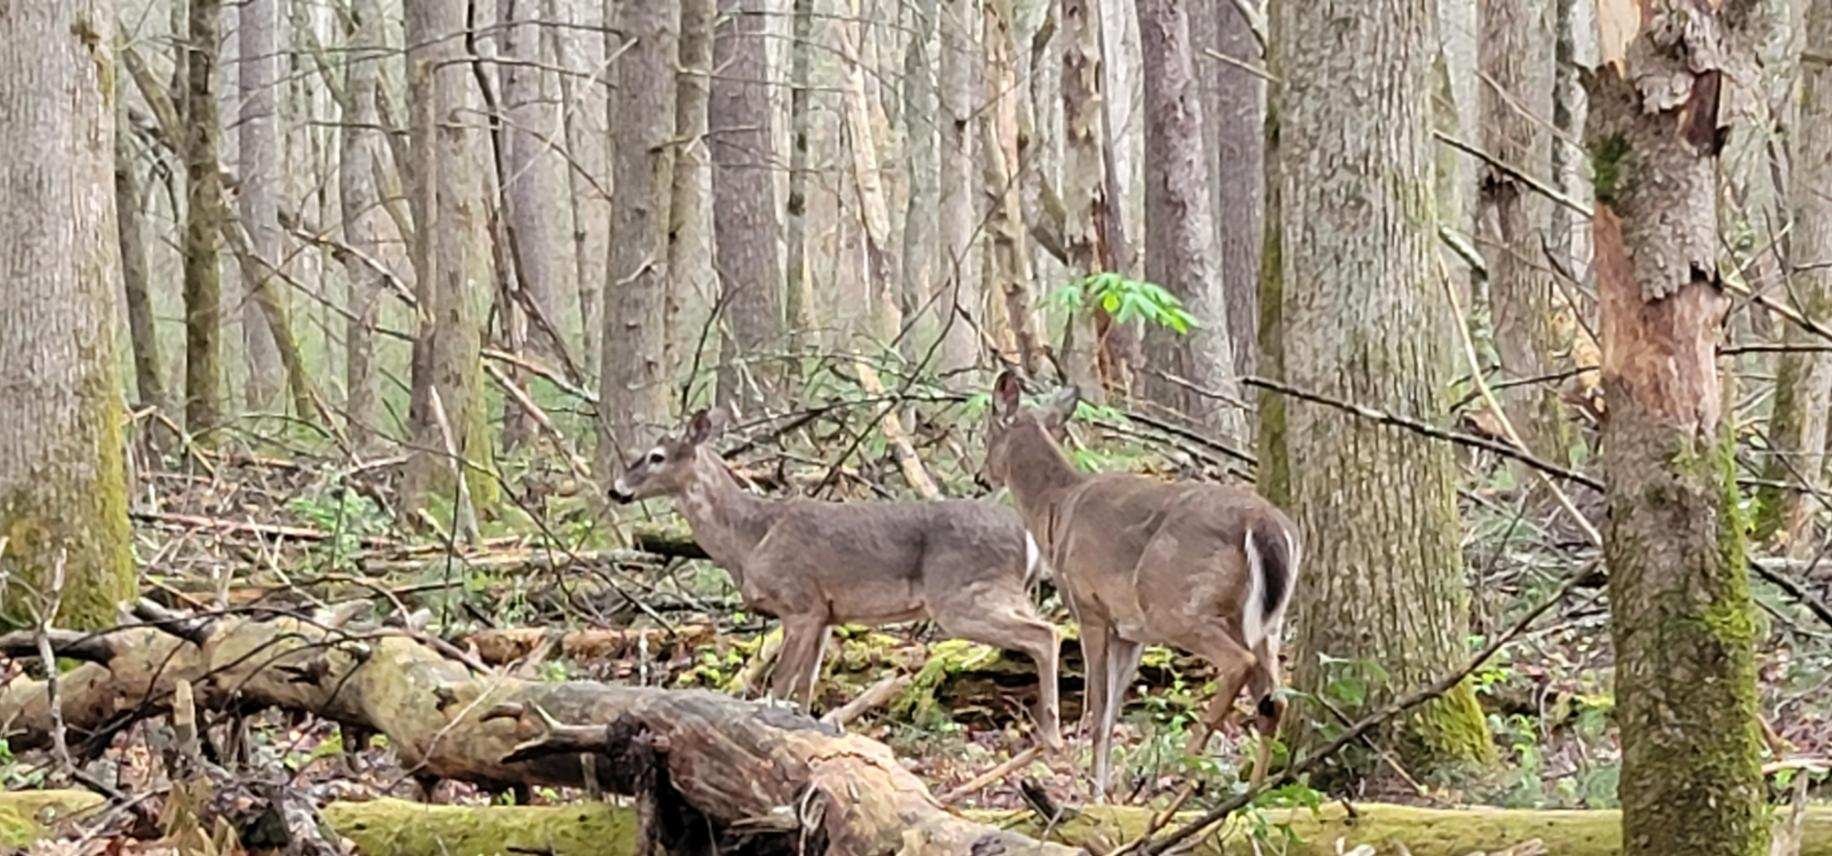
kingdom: Animalia
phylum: Chordata
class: Mammalia
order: Artiodactyla
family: Cervidae
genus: Odocoileus
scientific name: Odocoileus virginianus
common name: White-tailed deer
